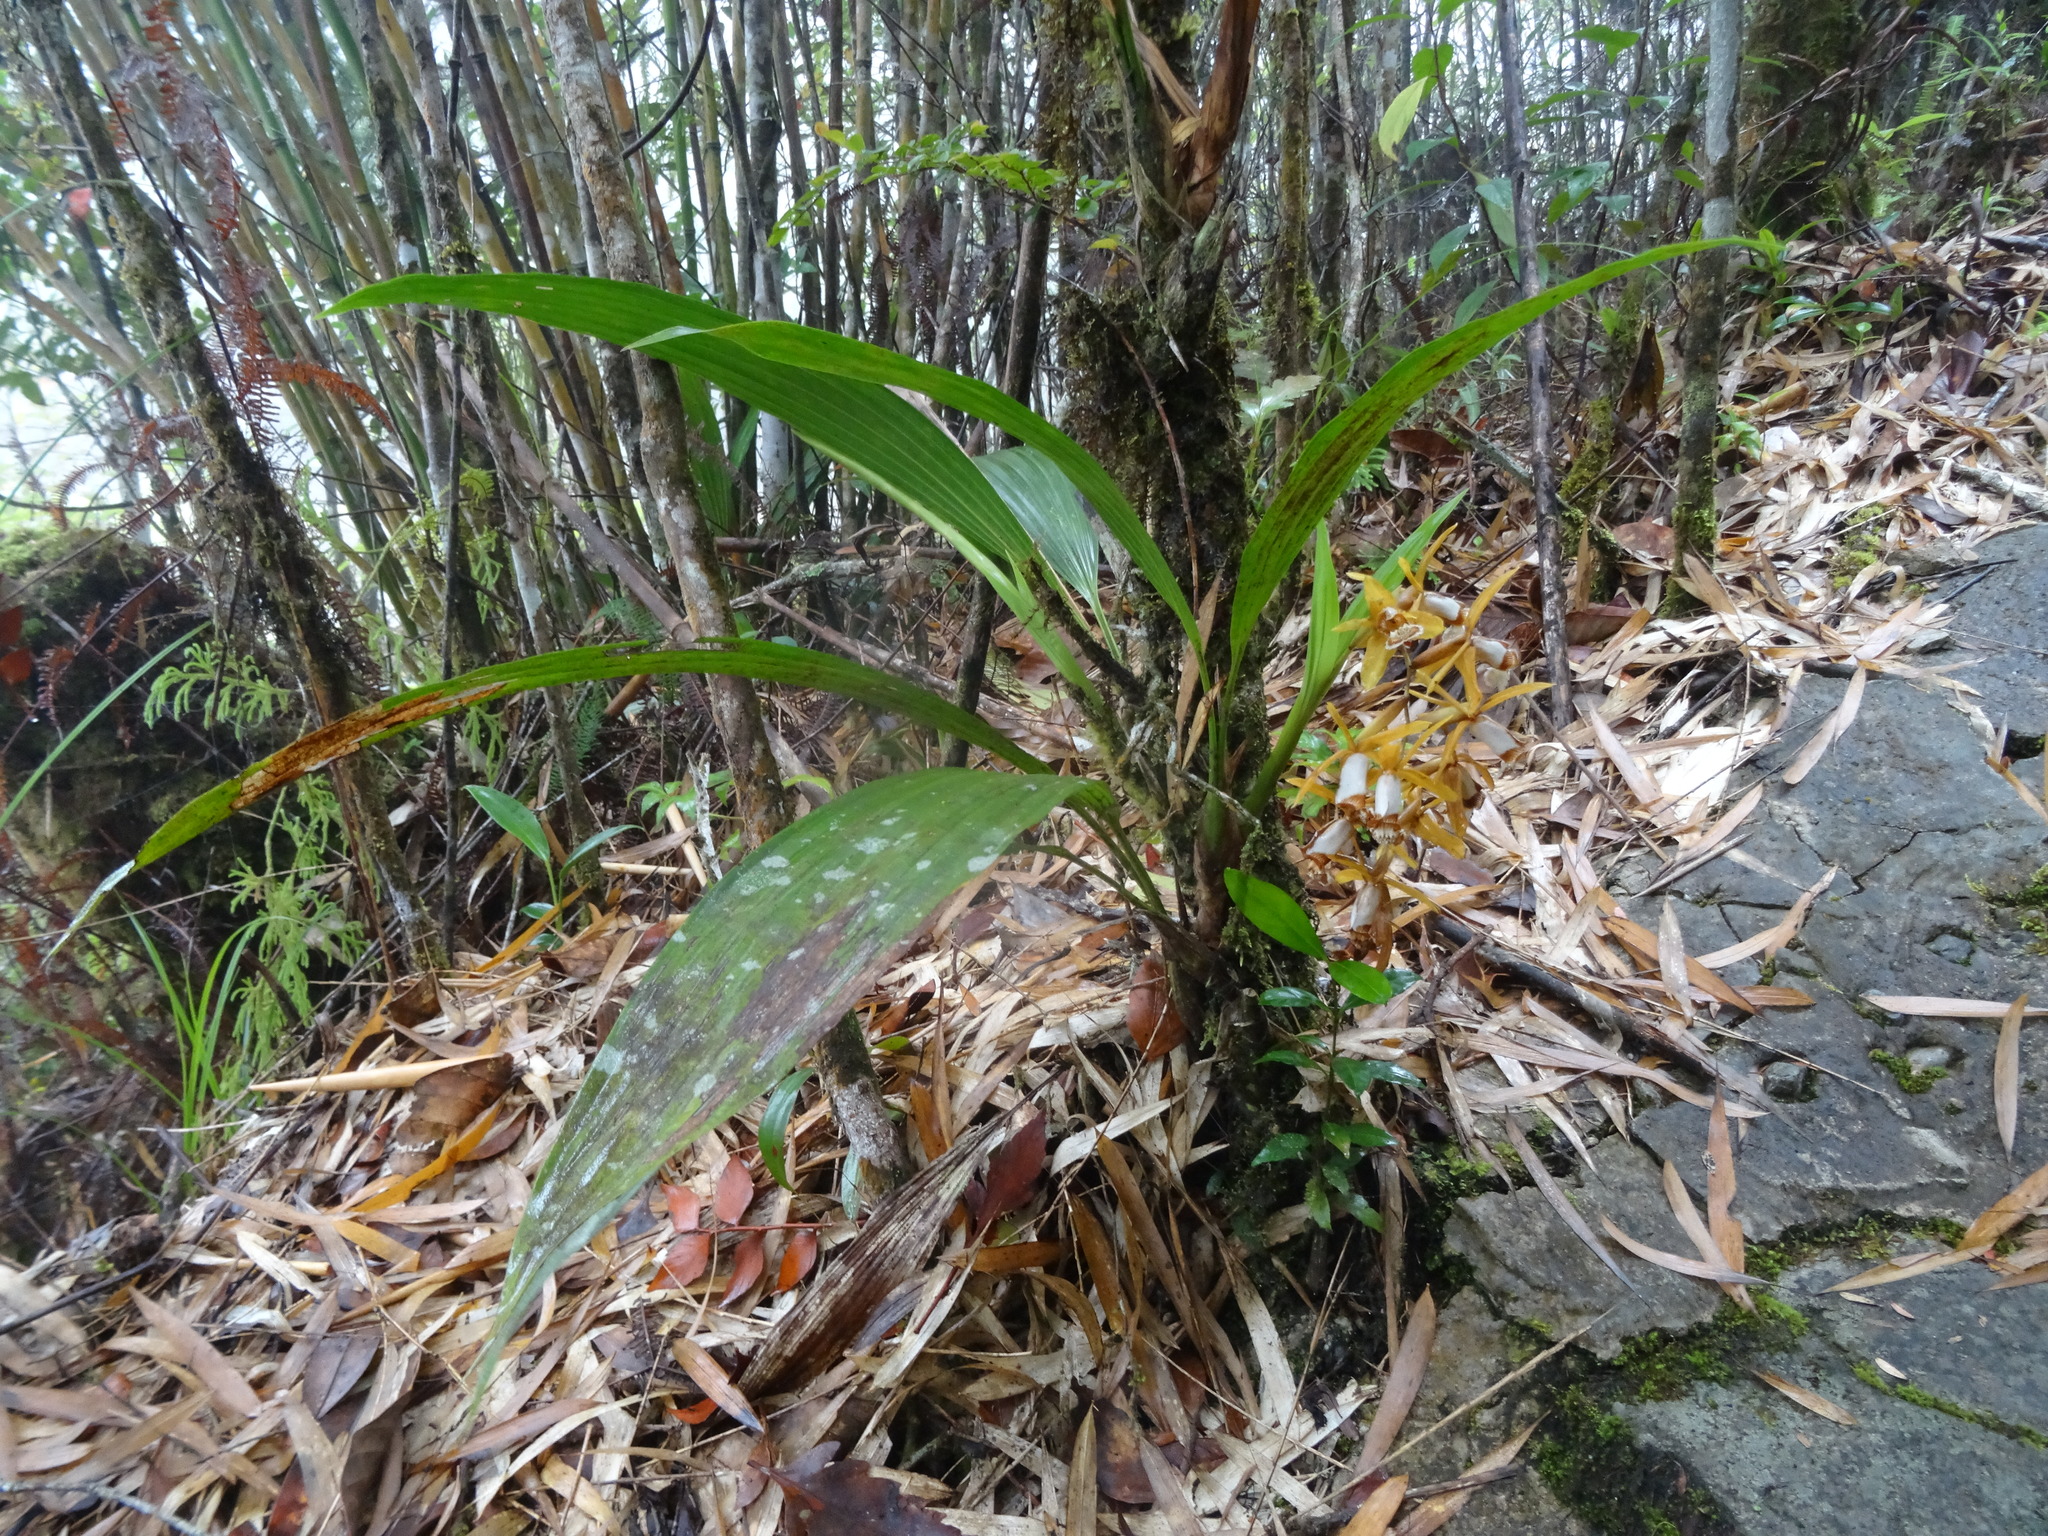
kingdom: Plantae
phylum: Tracheophyta
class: Liliopsida
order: Asparagales
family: Orchidaceae
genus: Coelogyne
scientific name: Coelogyne radioferens
